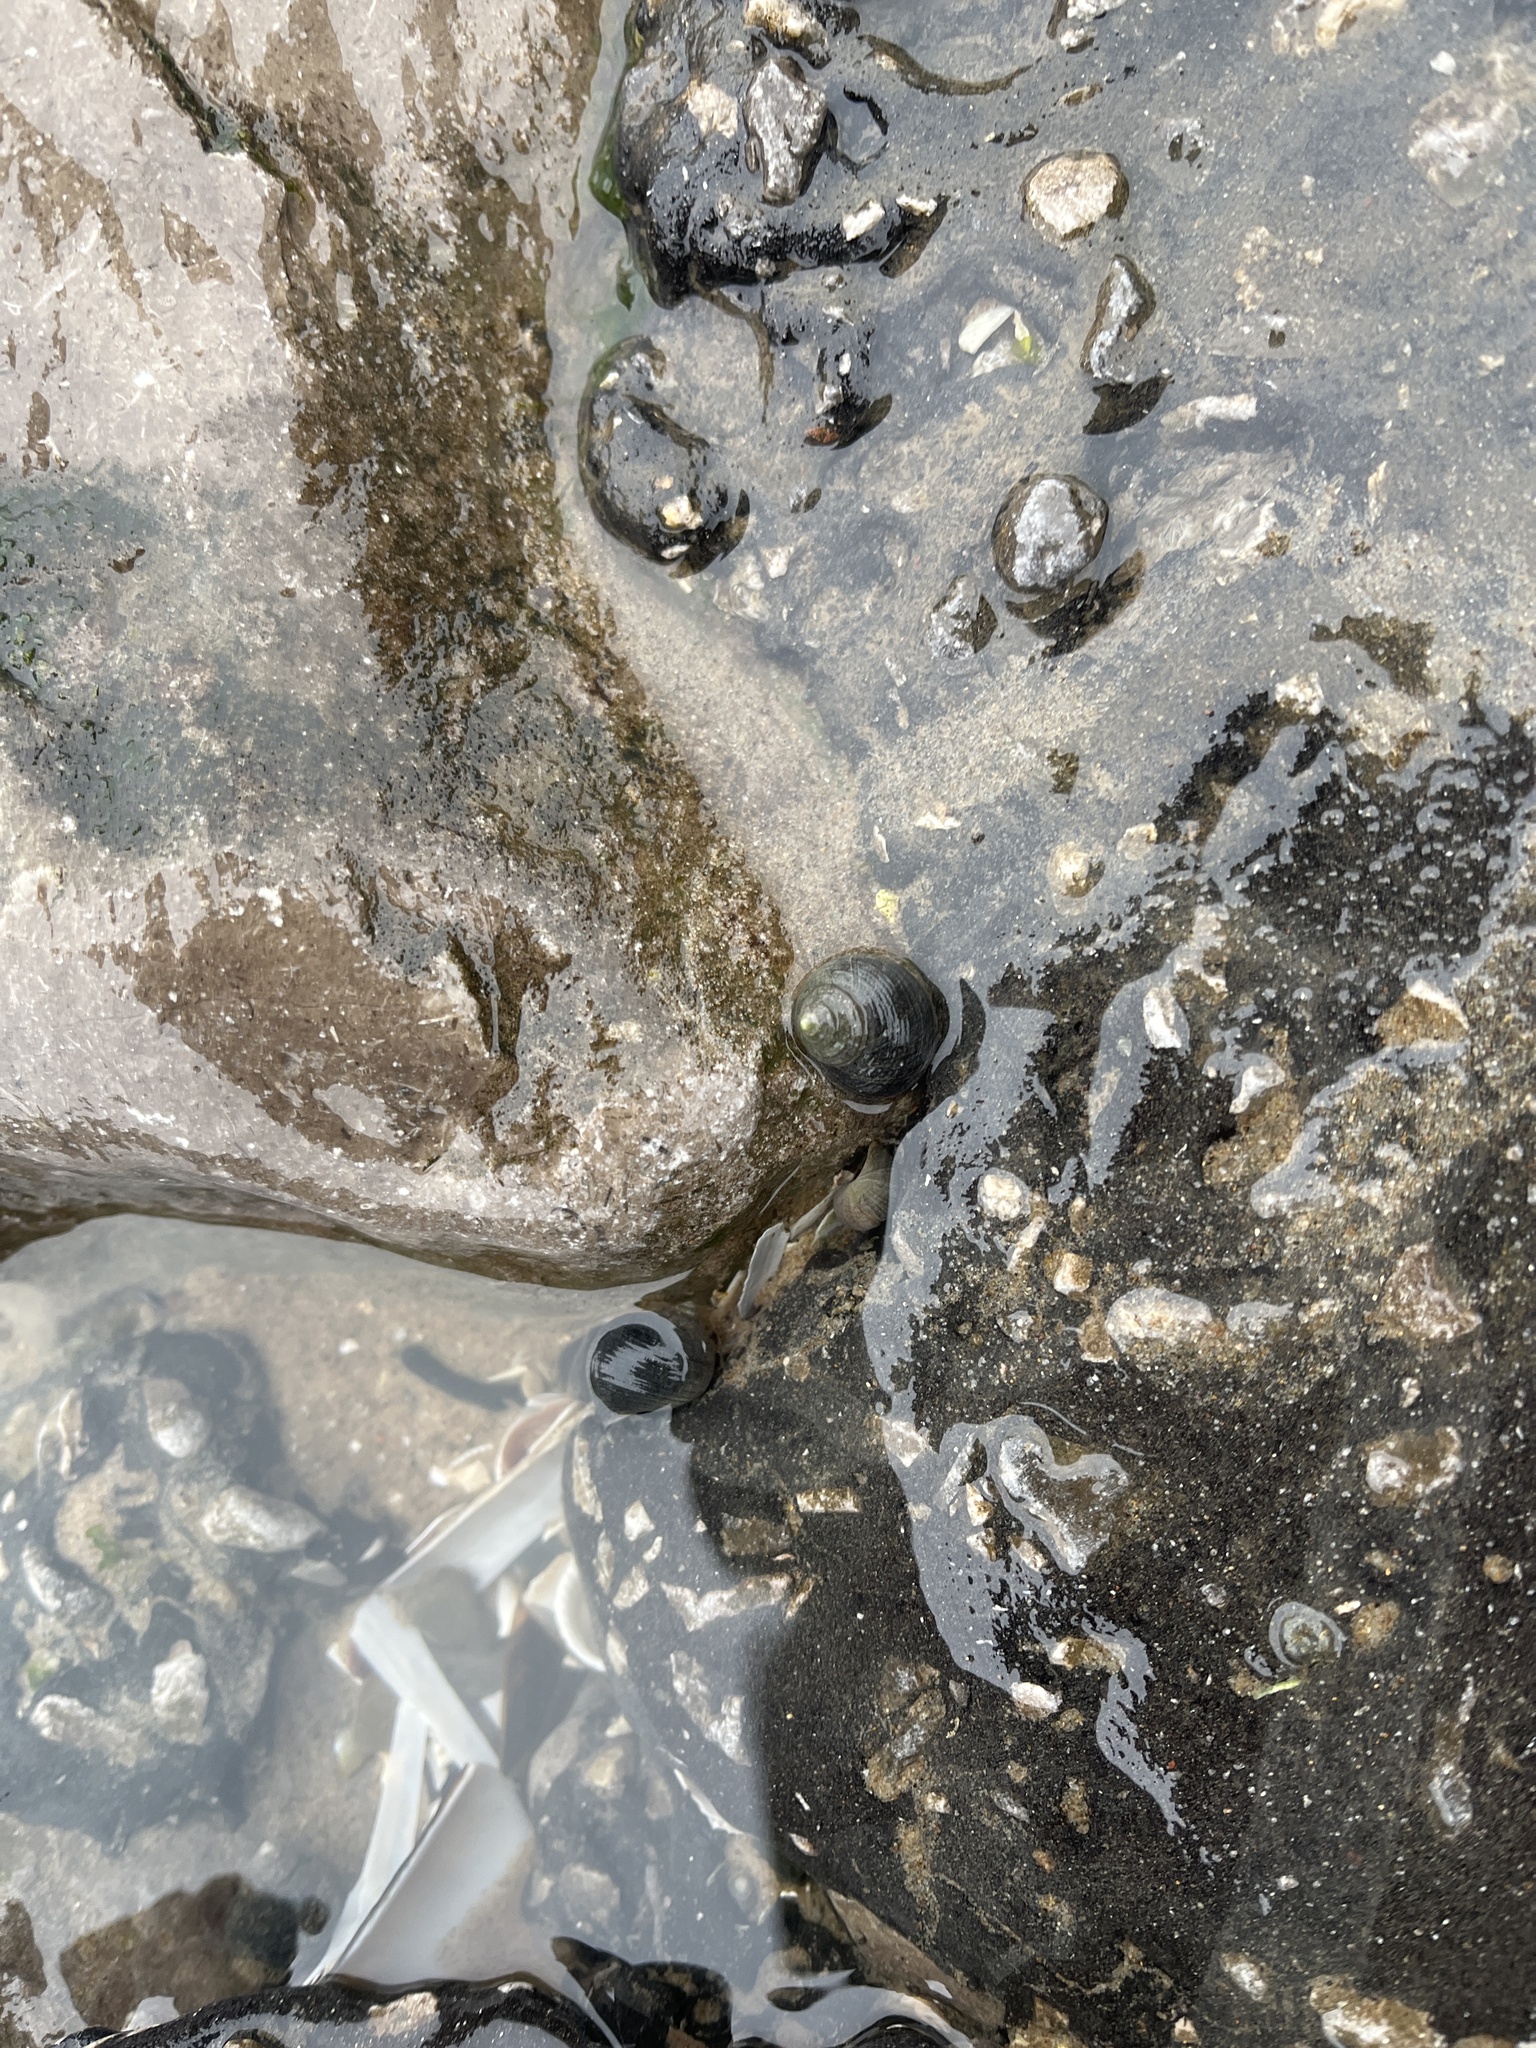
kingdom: Animalia
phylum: Mollusca
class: Gastropoda
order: Littorinimorpha
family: Littorinidae
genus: Littorina
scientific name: Littorina littorea
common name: Common periwinkle
